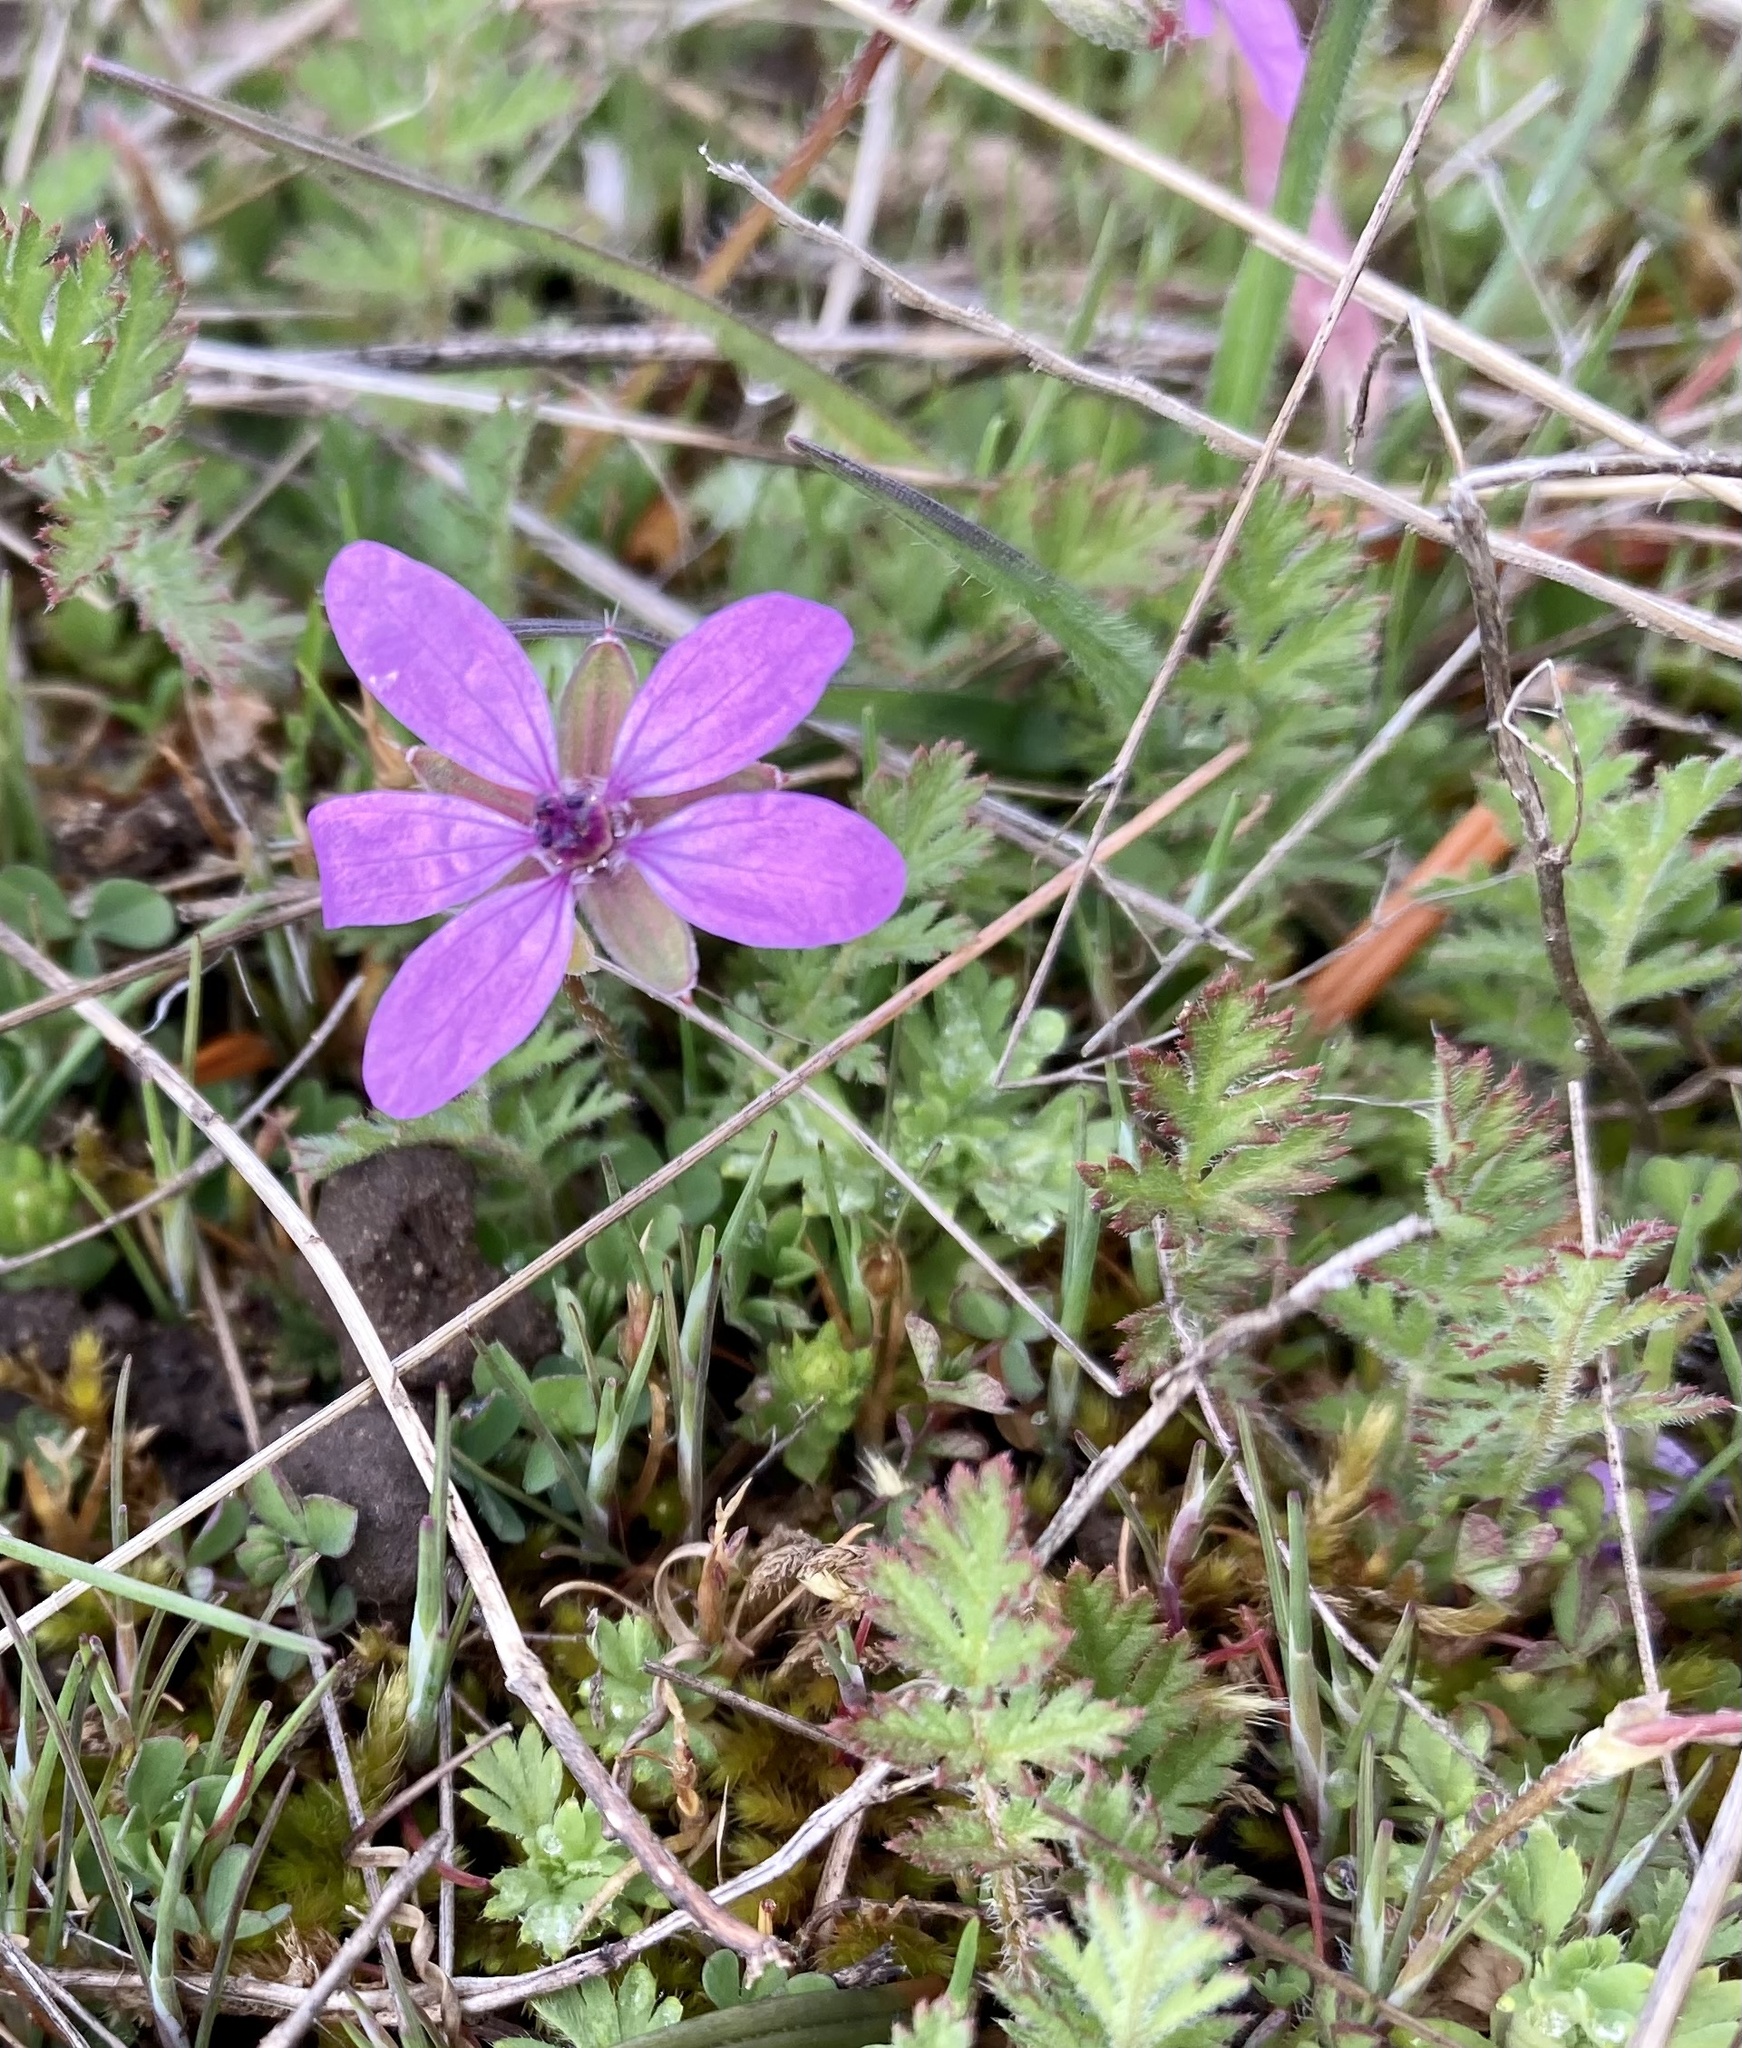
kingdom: Plantae
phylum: Tracheophyta
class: Magnoliopsida
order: Geraniales
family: Geraniaceae
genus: Erodium
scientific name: Erodium cicutarium
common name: Common stork's-bill
